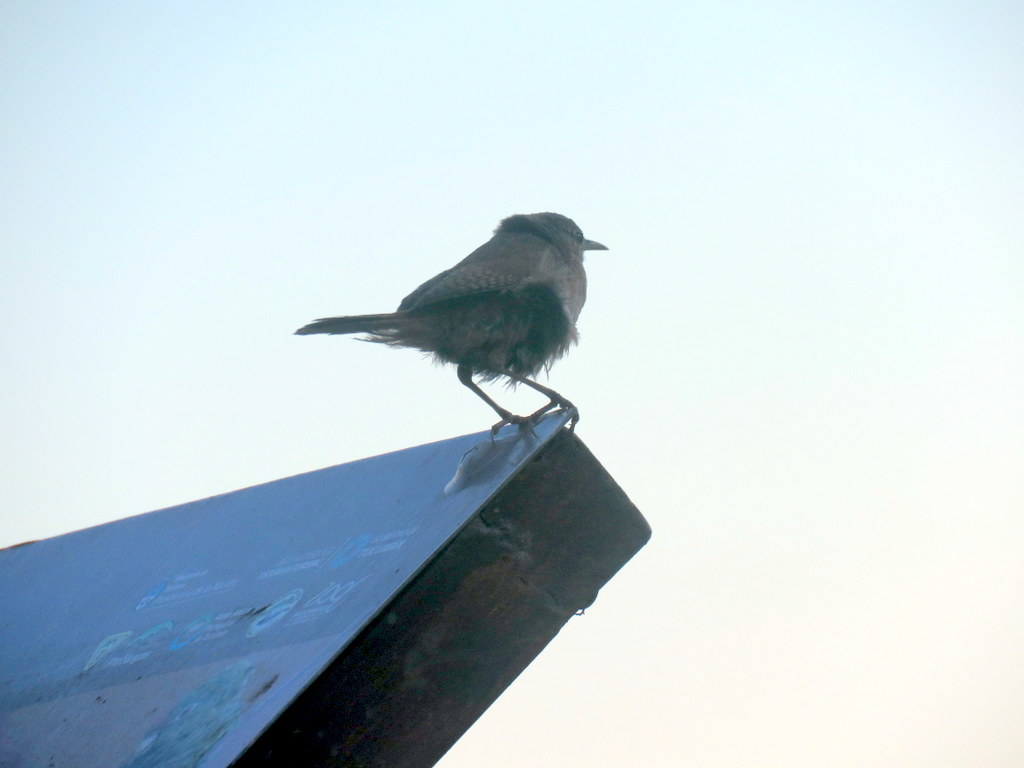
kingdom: Animalia
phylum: Chordata
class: Aves
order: Passeriformes
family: Troglodytidae
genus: Troglodytes
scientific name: Troglodytes aedon
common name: House wren
